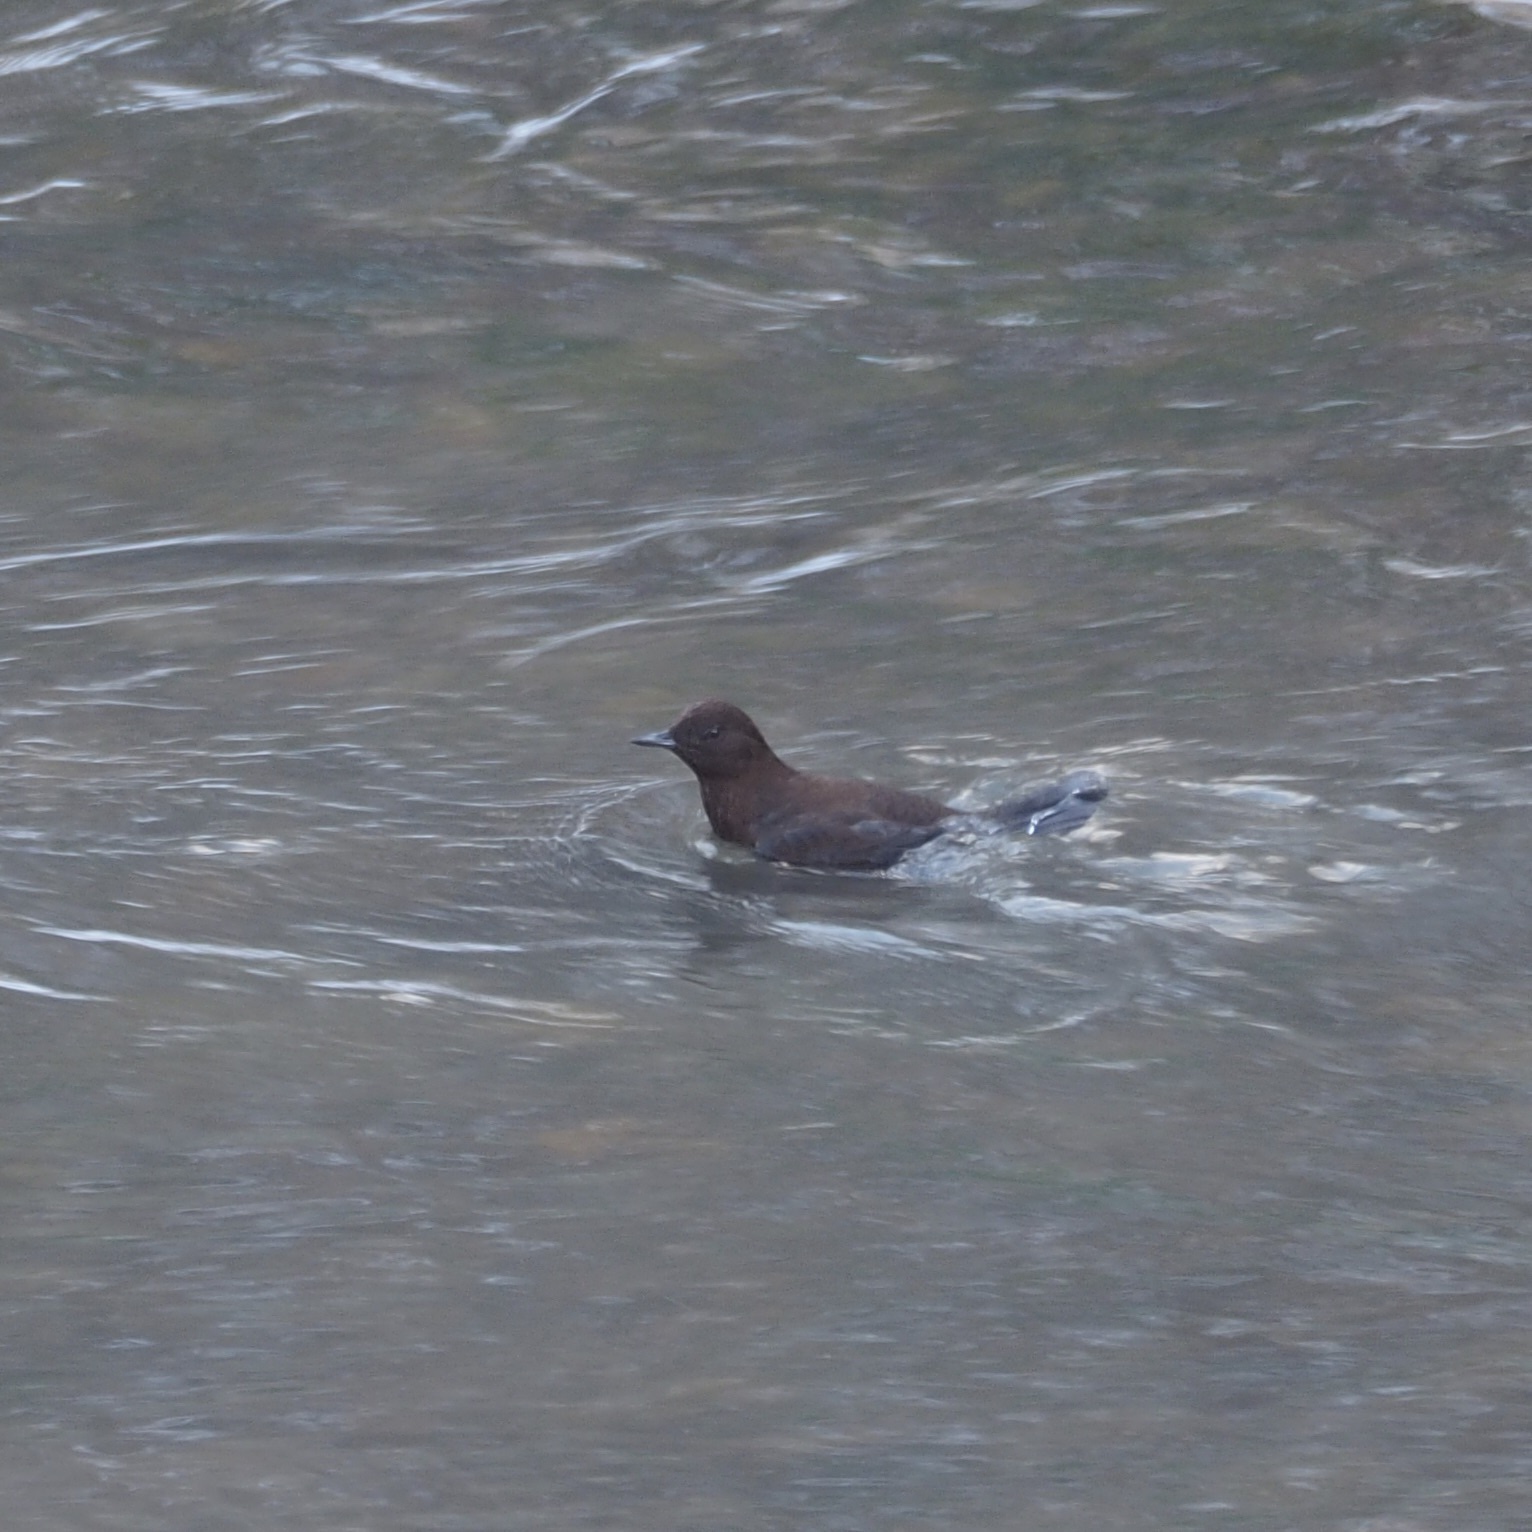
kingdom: Animalia
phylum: Chordata
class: Aves
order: Passeriformes
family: Cinclidae
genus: Cinclus
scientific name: Cinclus pallasii
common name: Brown dipper
